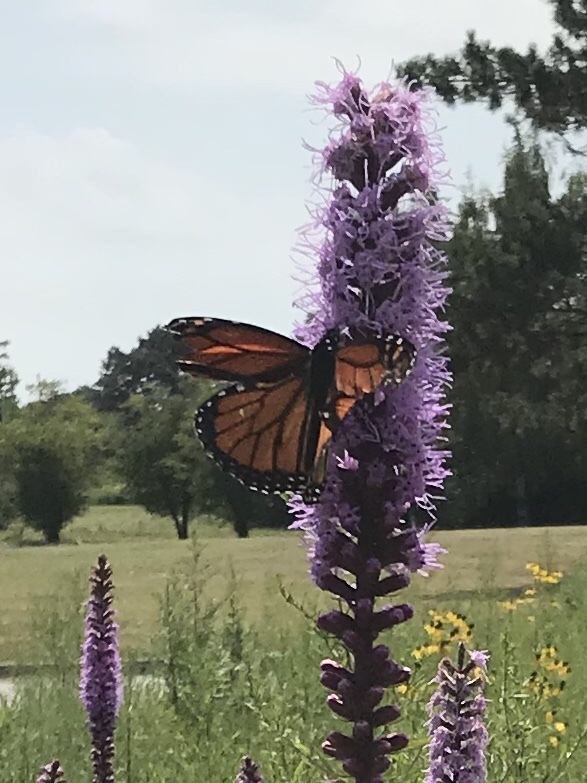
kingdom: Animalia
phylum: Arthropoda
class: Insecta
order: Lepidoptera
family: Nymphalidae
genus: Danaus
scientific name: Danaus plexippus
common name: Monarch
